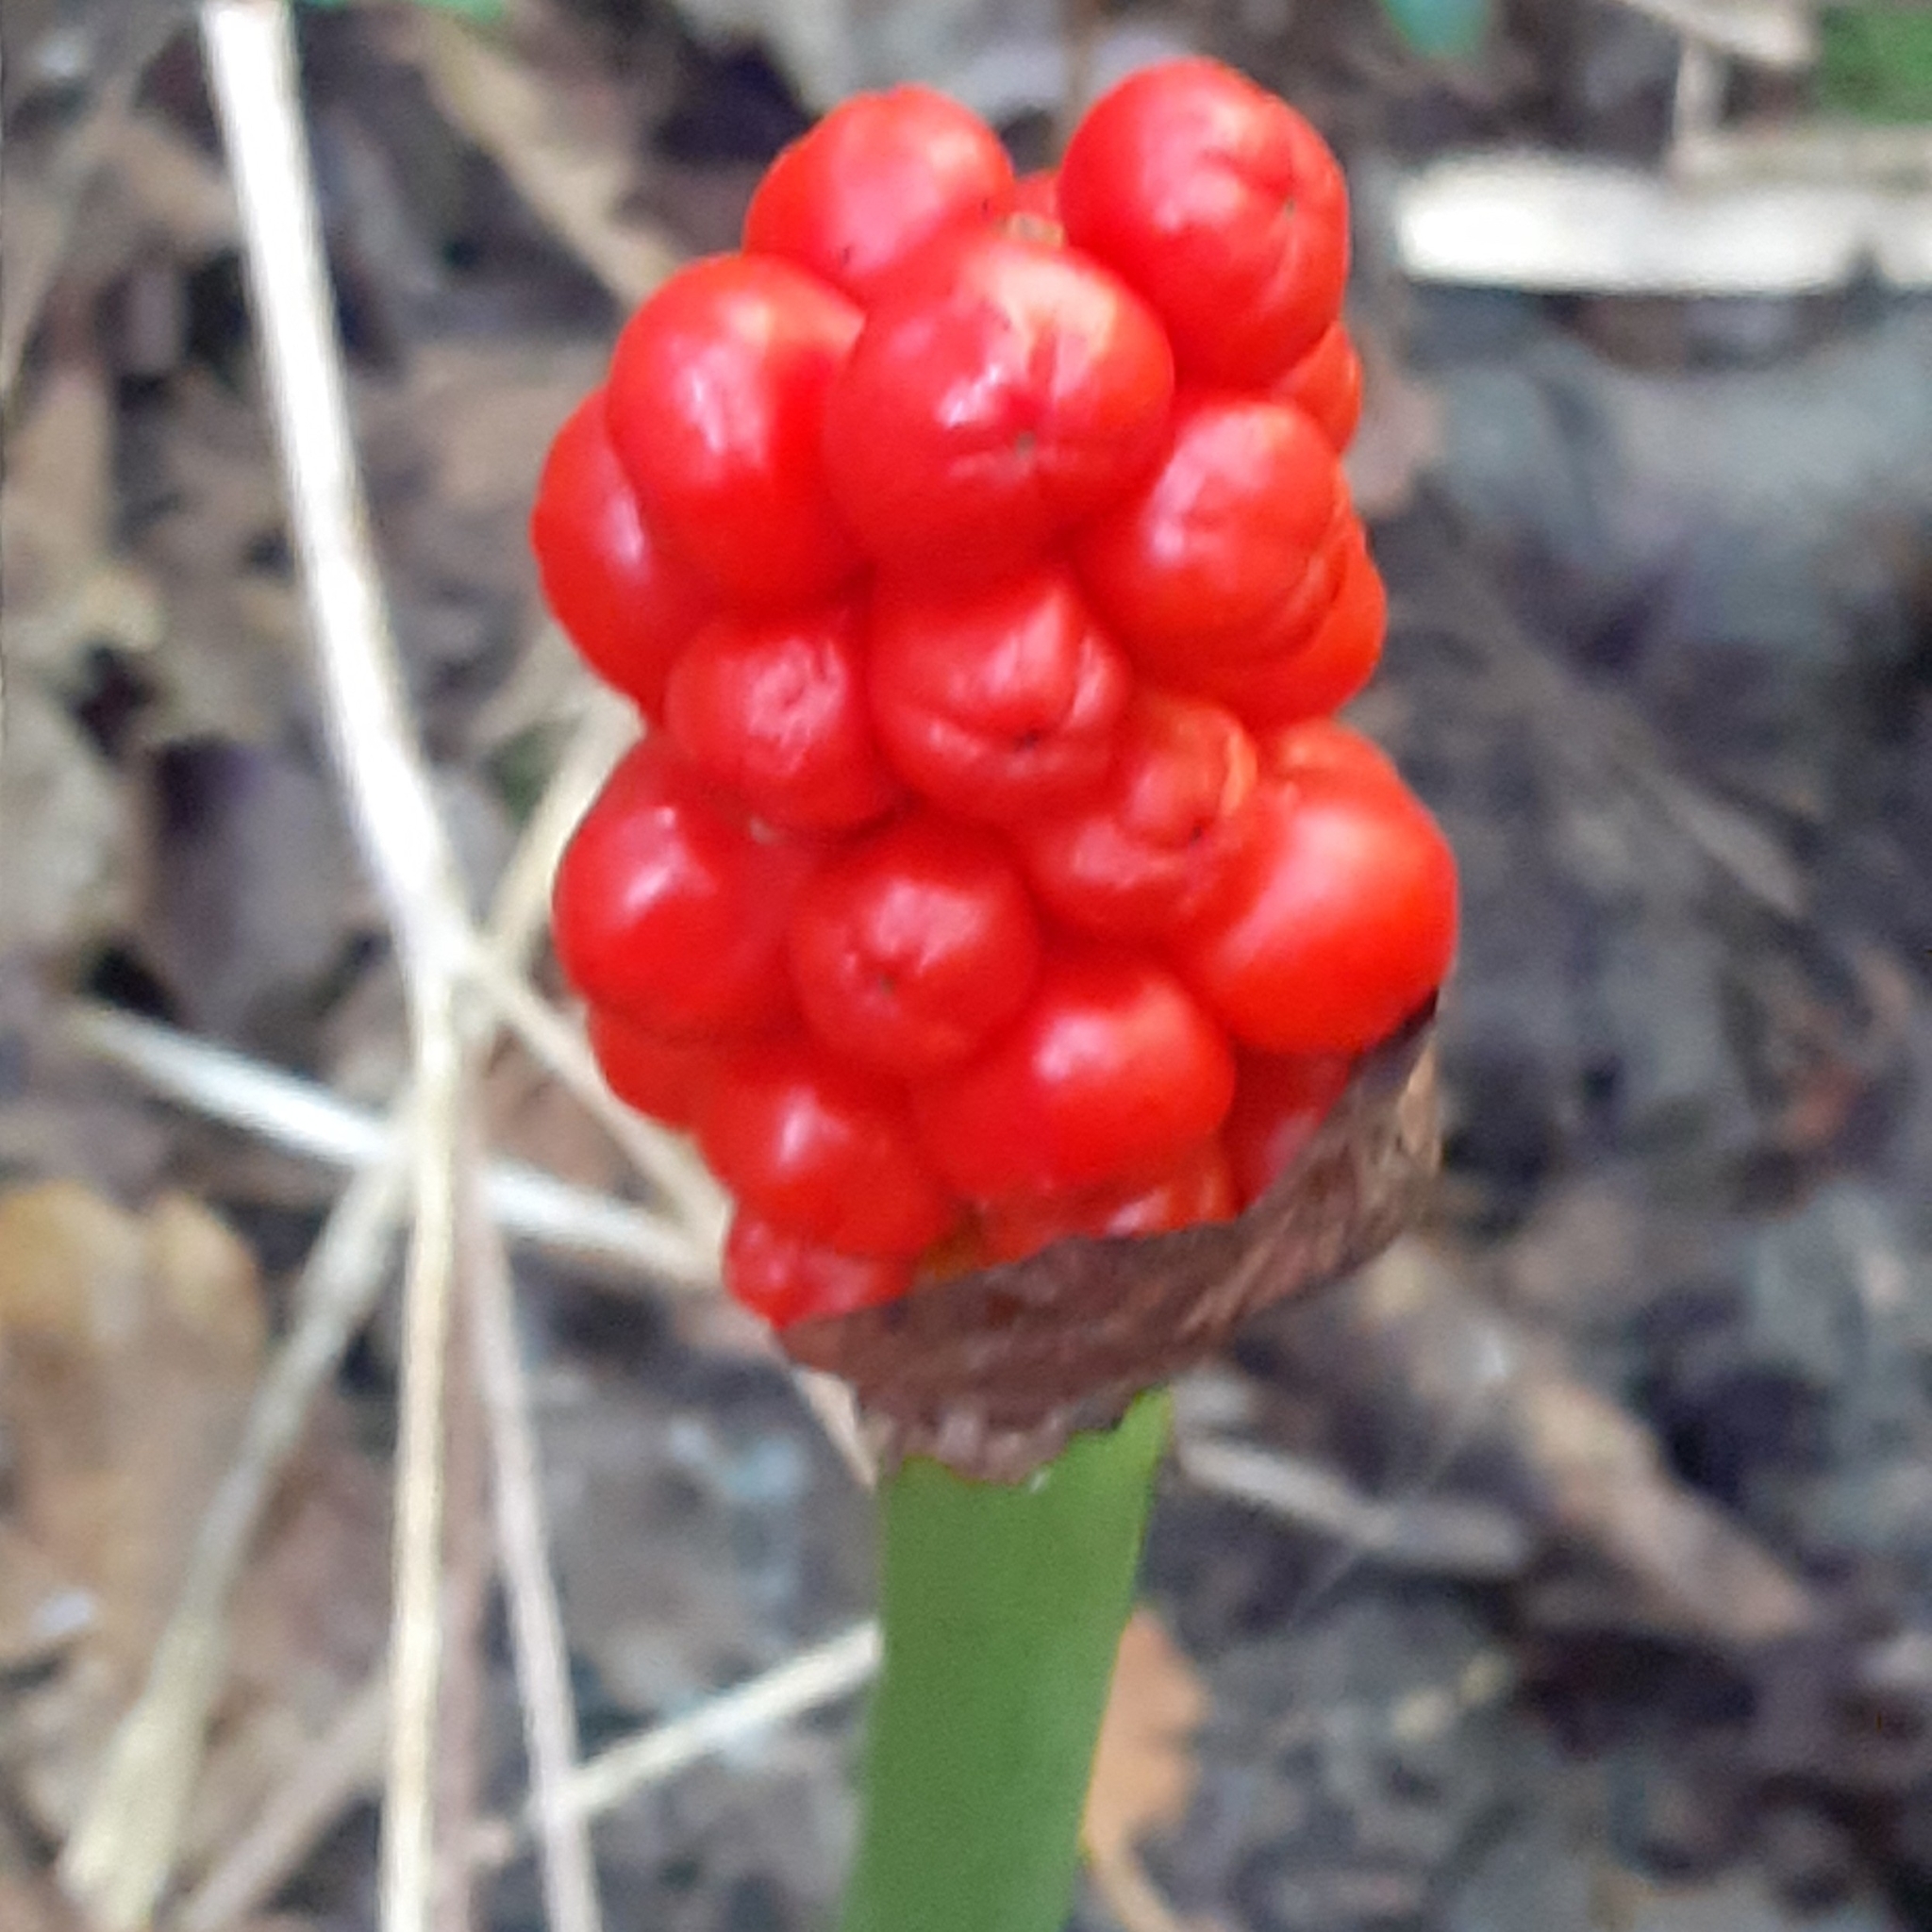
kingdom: Plantae
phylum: Tracheophyta
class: Liliopsida
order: Alismatales
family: Araceae
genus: Arum
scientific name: Arum maculatum
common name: Lords-and-ladies
